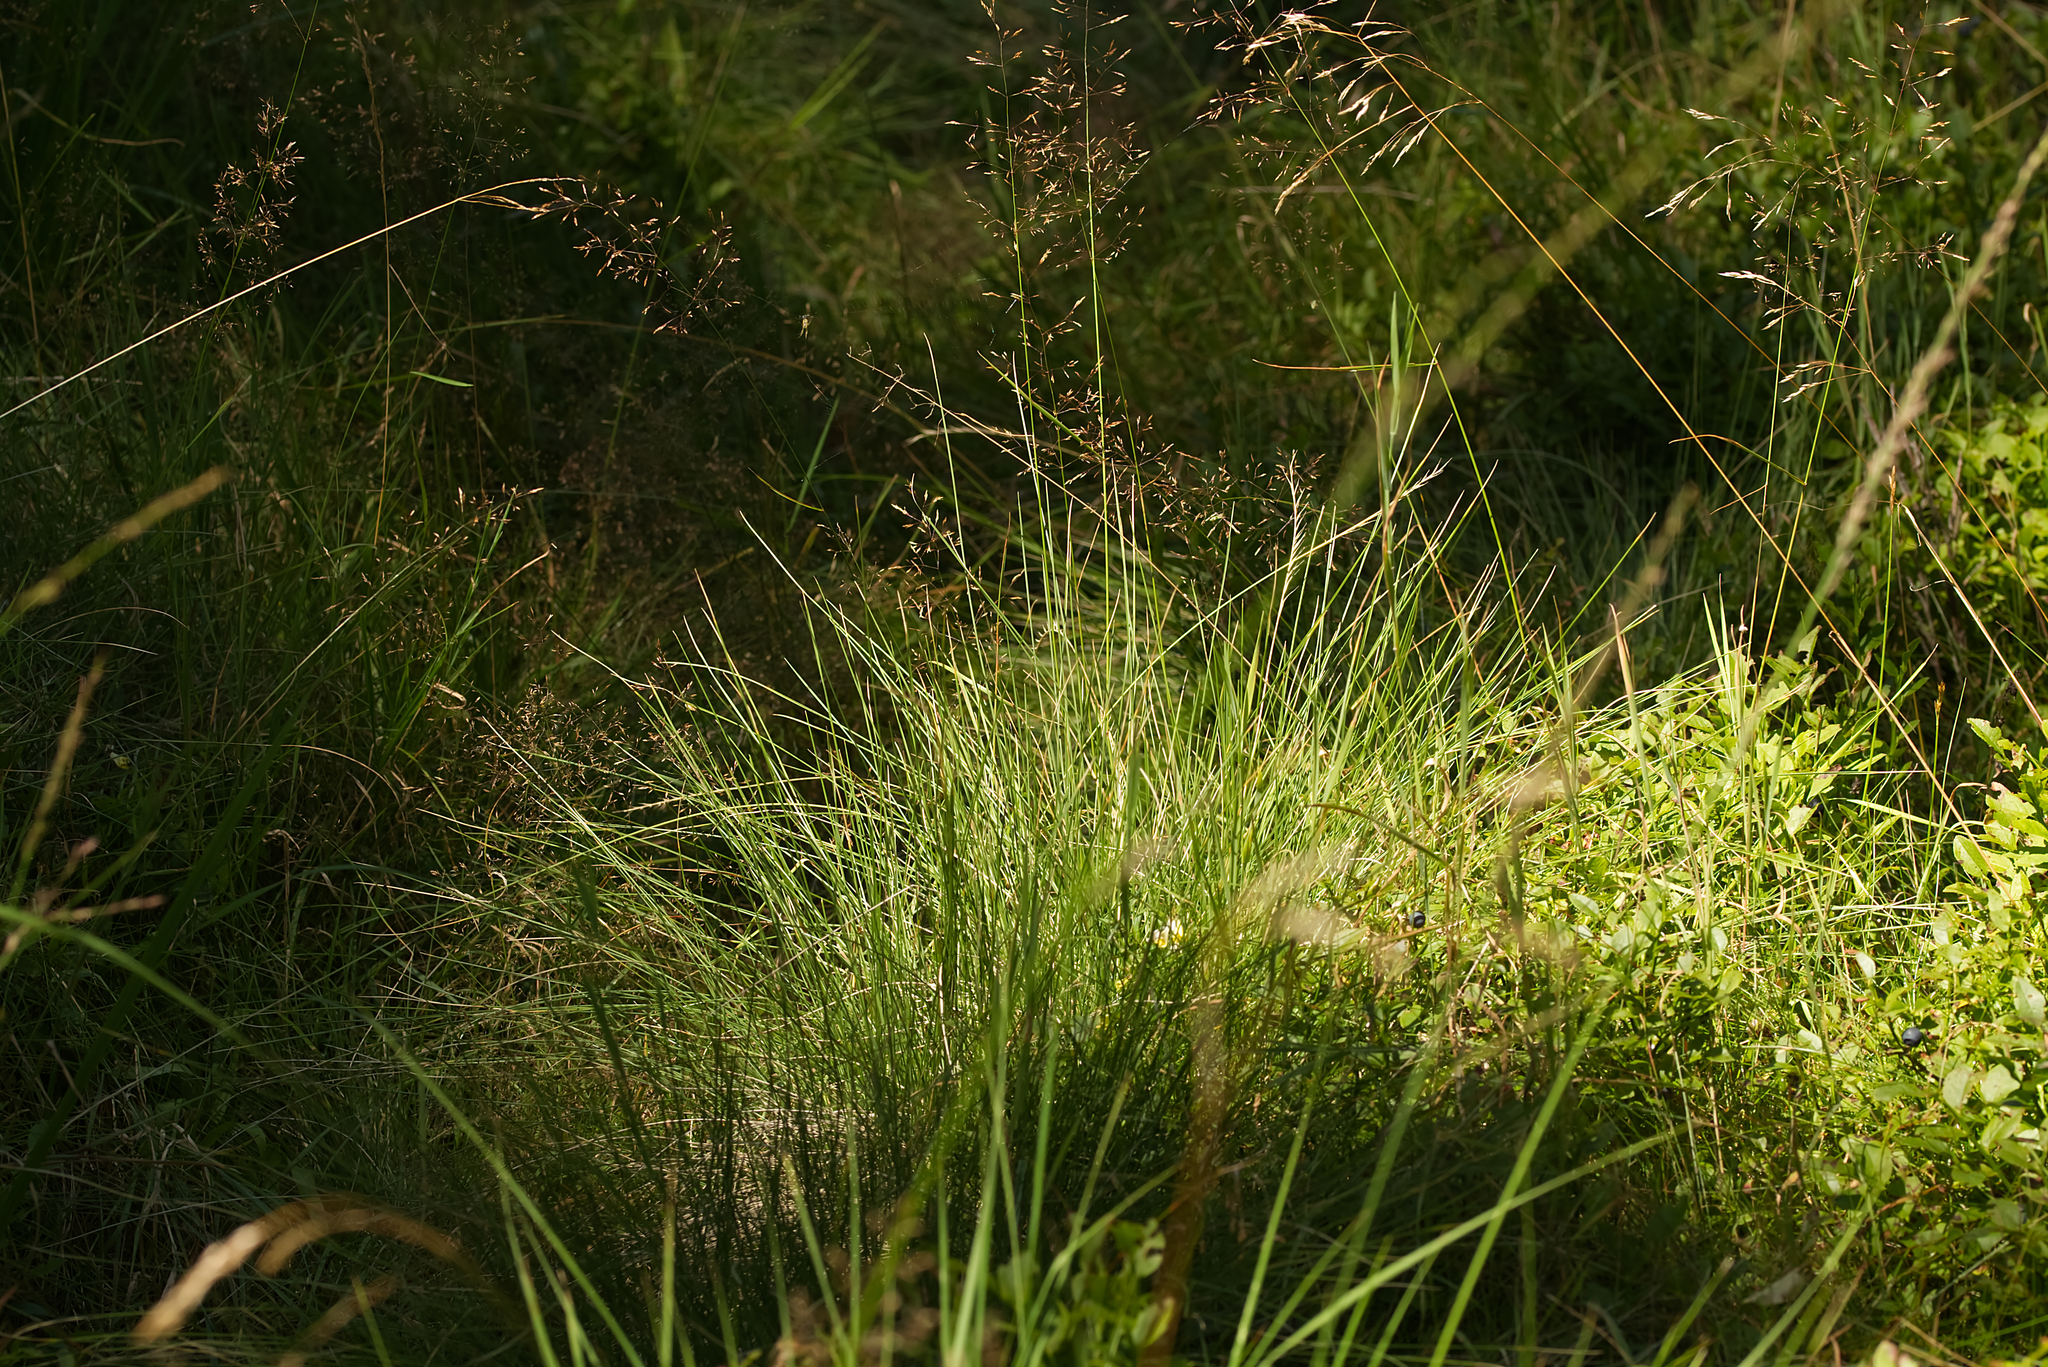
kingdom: Plantae
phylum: Tracheophyta
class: Liliopsida
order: Poales
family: Poaceae
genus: Nardus
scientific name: Nardus stricta
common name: Mat-grass
